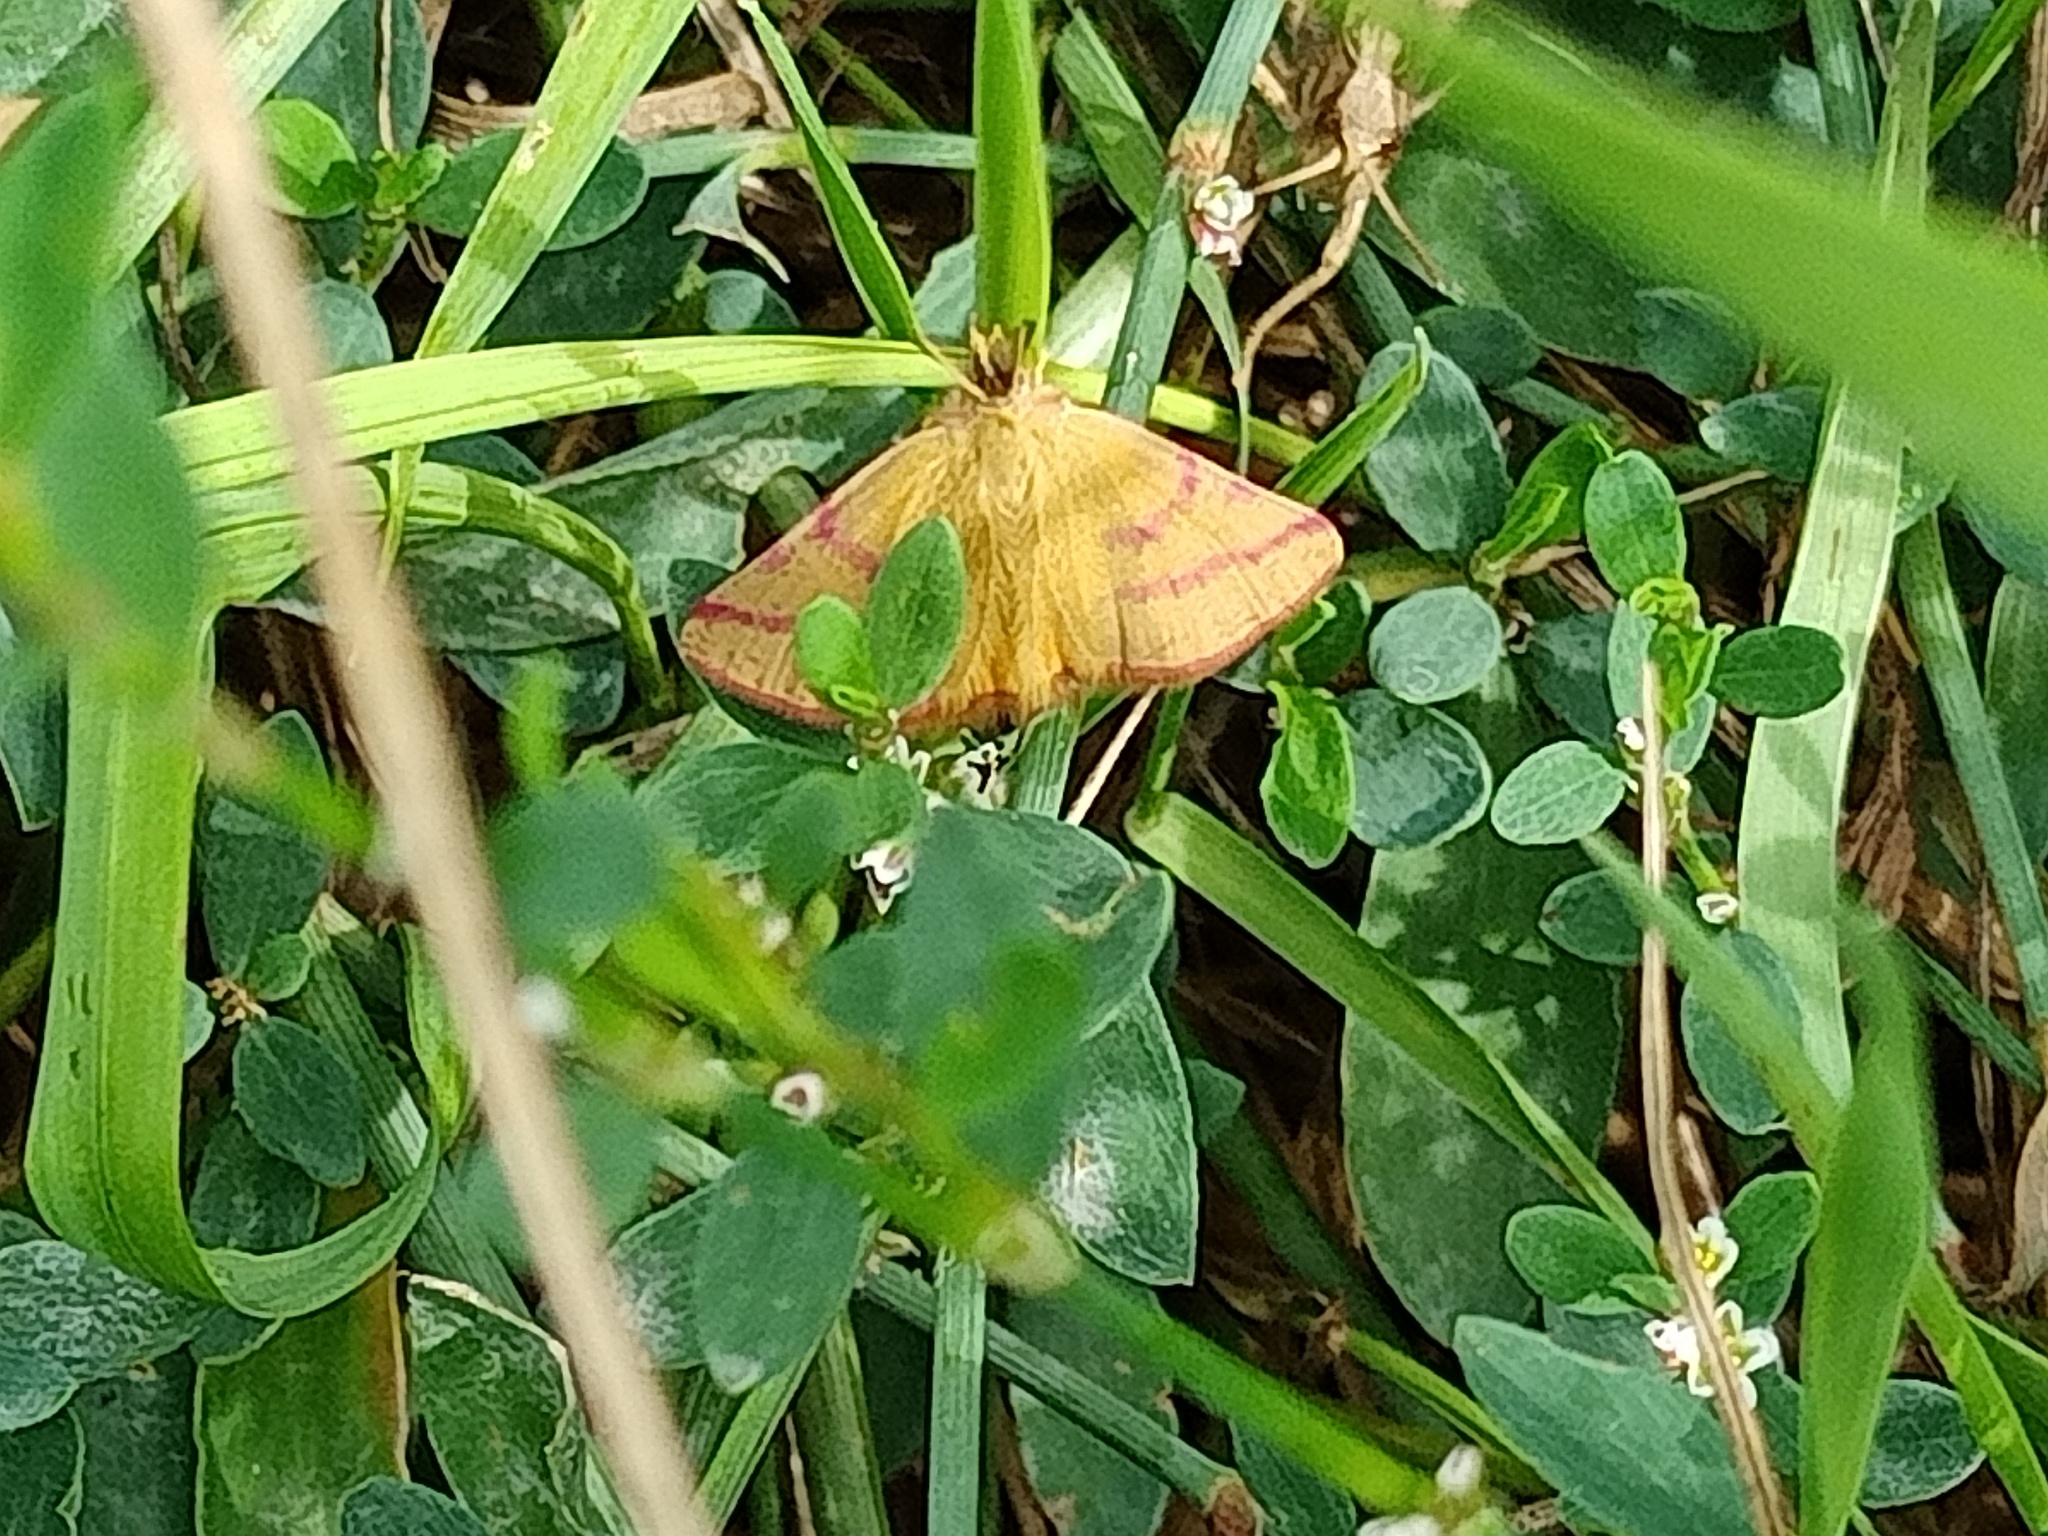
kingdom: Animalia
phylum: Arthropoda
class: Insecta
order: Lepidoptera
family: Geometridae
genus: Lythria
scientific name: Lythria purpuraria
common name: Purple-barred yellow
